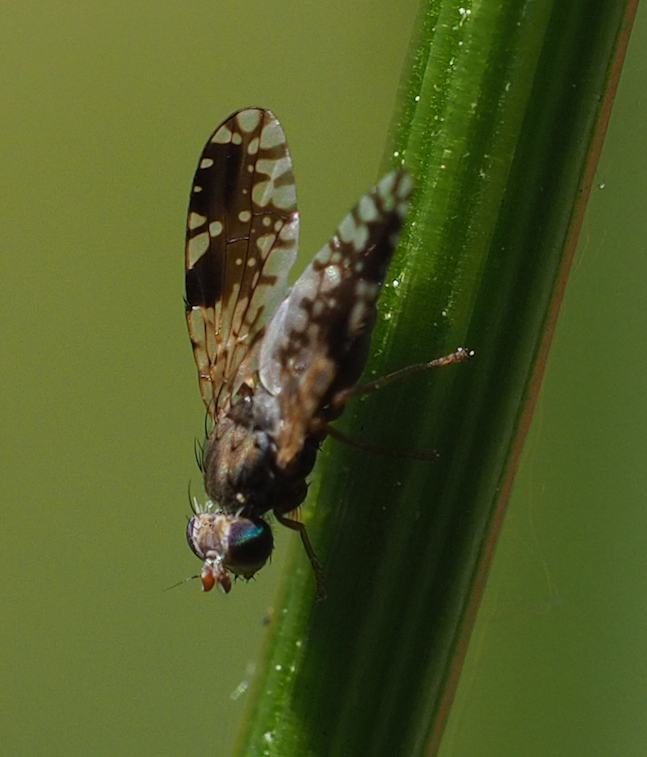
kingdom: Animalia
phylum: Arthropoda
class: Insecta
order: Diptera
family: Tephritidae
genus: Tephritis
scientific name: Tephritis neesii
